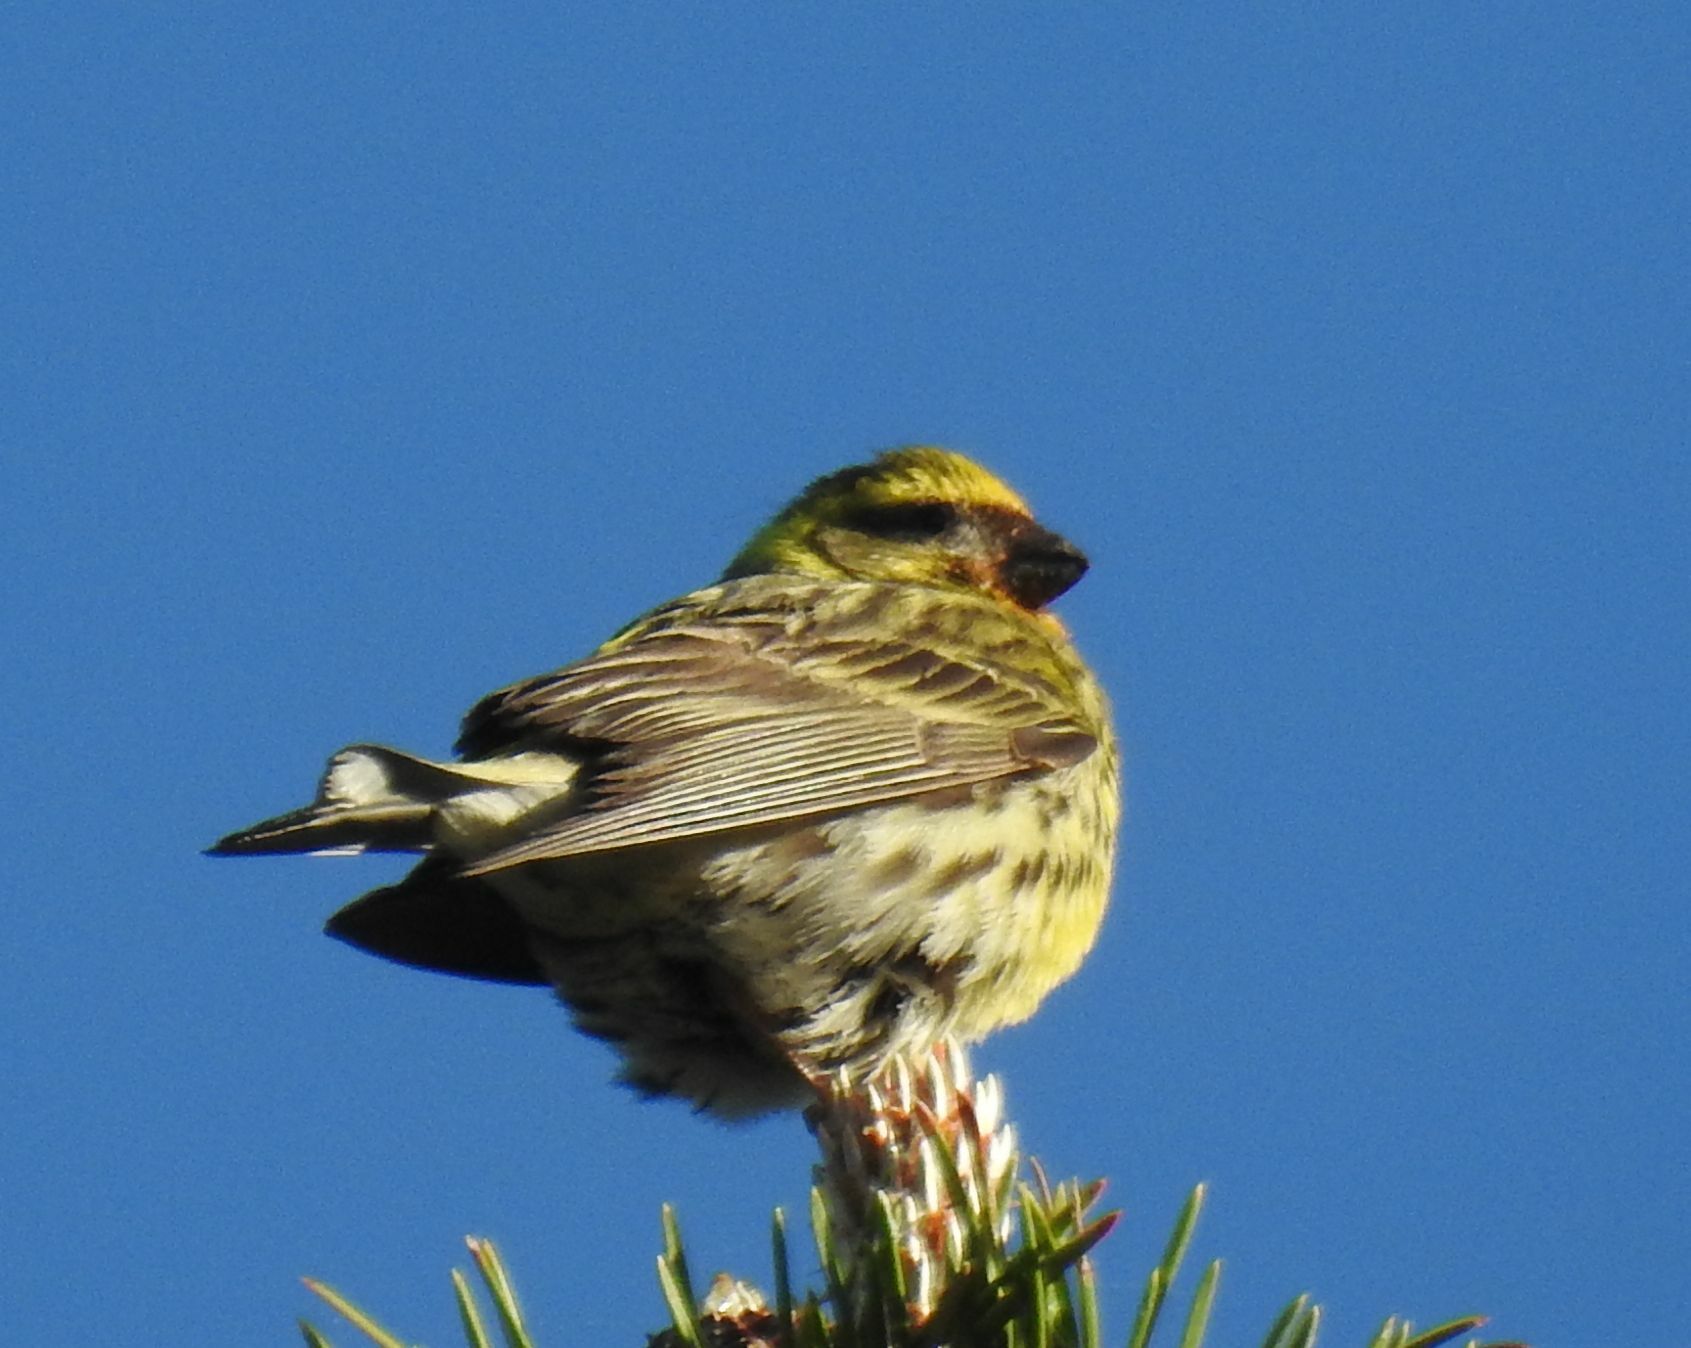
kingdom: Animalia
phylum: Chordata
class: Aves
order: Passeriformes
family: Fringillidae
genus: Serinus
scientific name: Serinus serinus
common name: European serin
